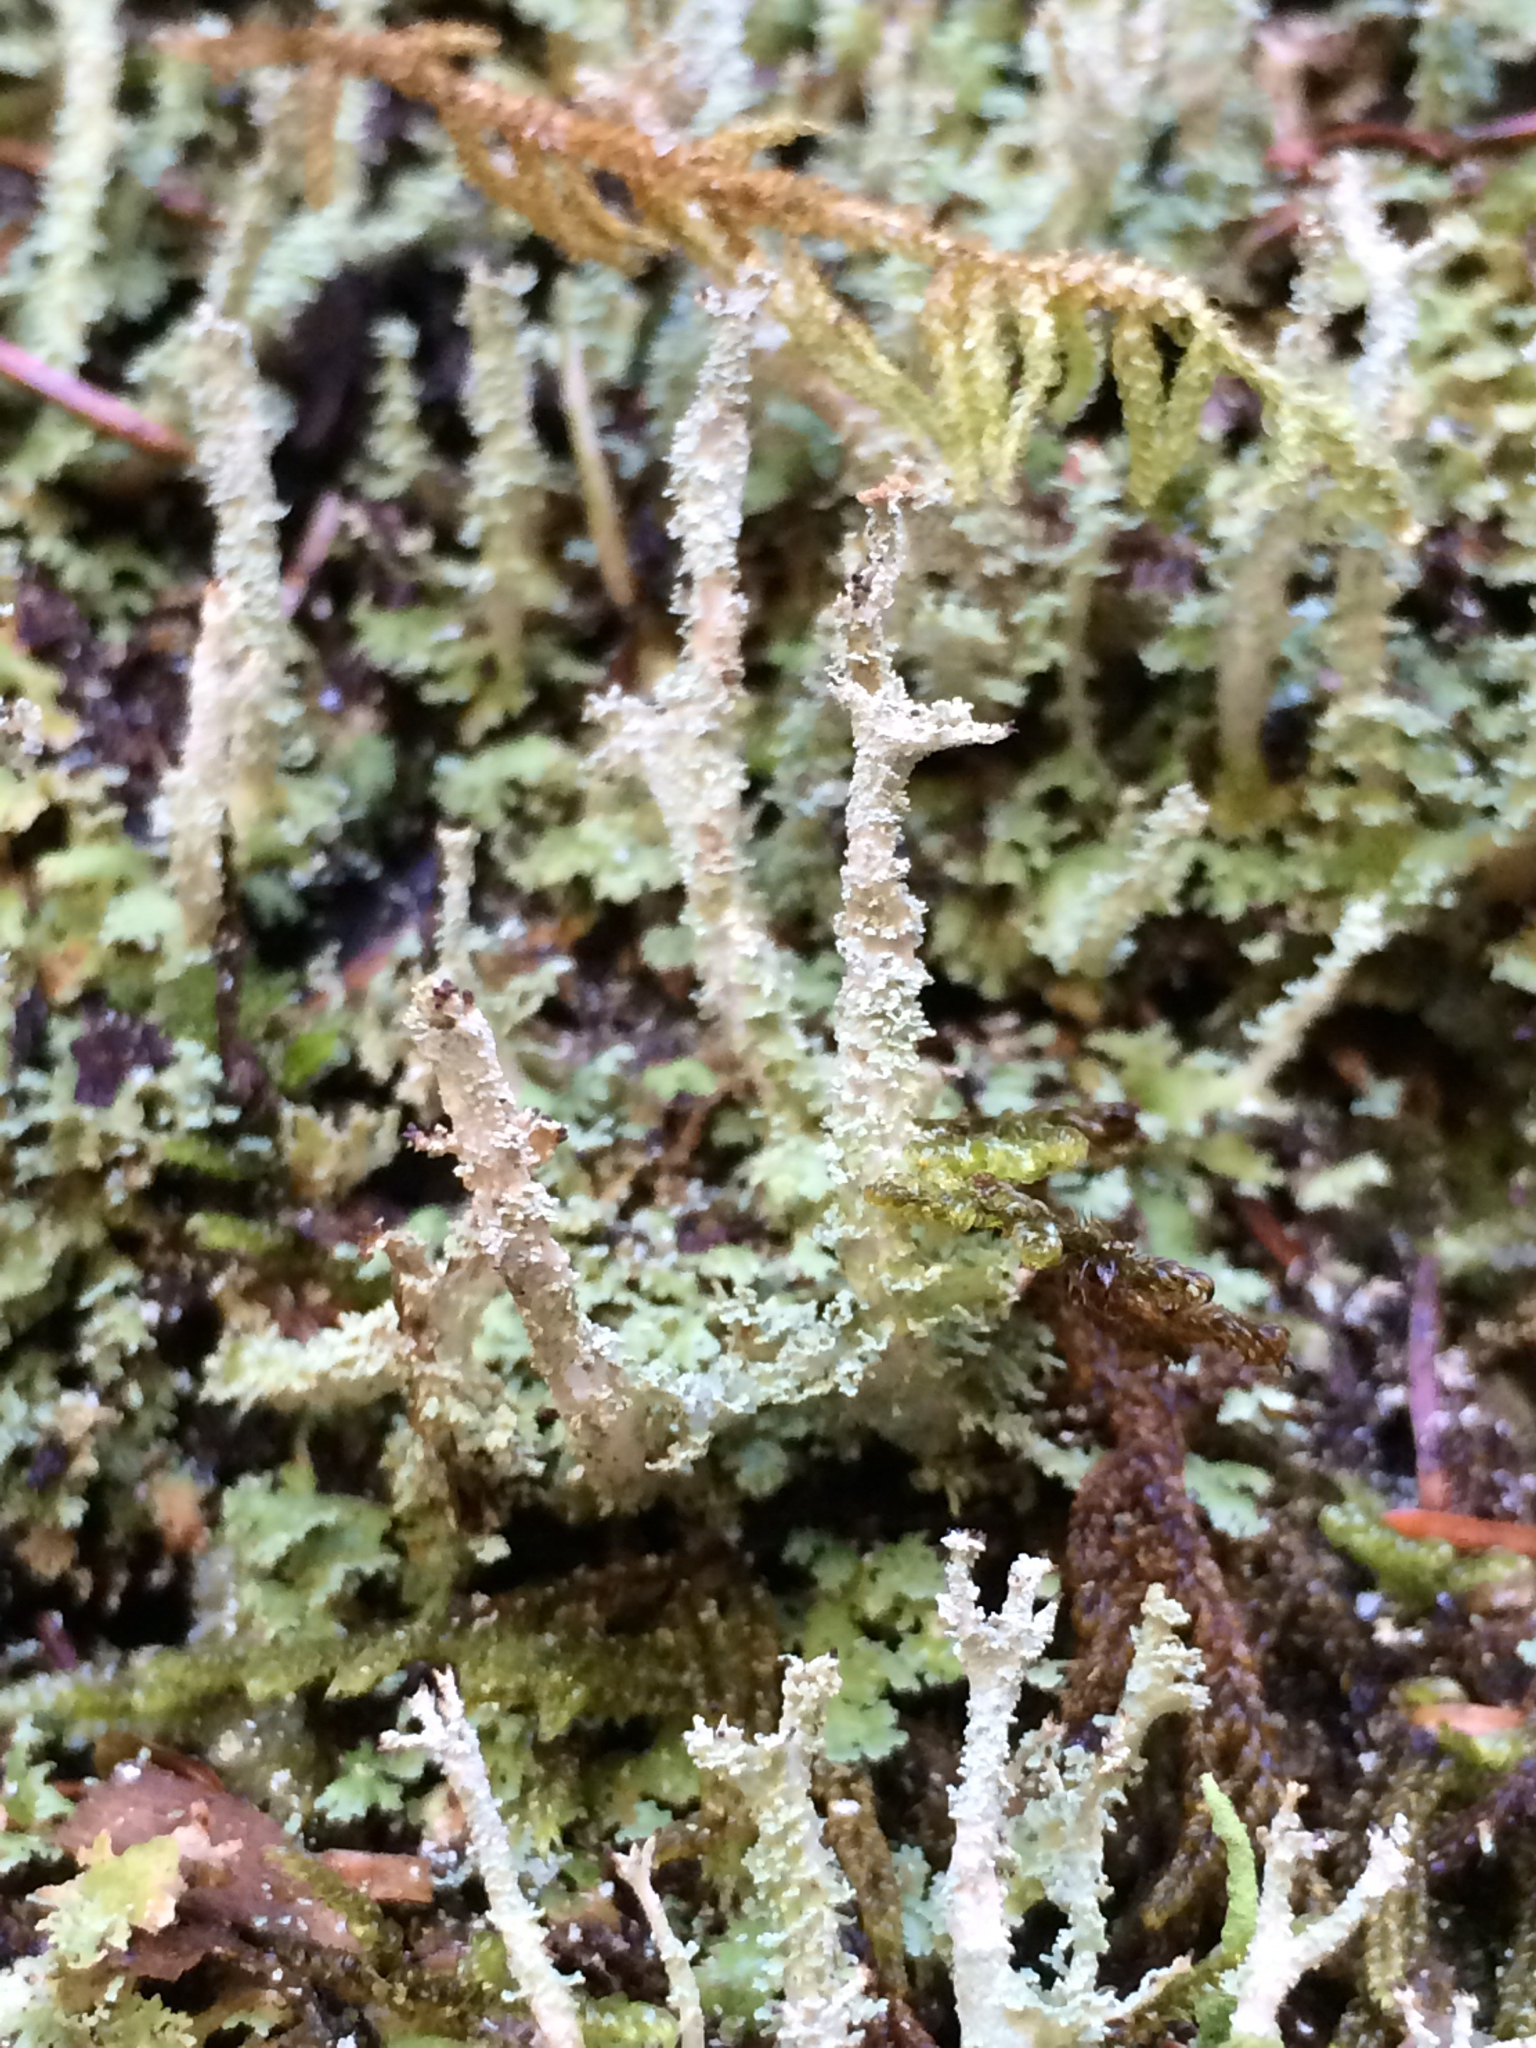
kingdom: Fungi
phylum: Ascomycota
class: Lecanoromycetes
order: Lecanorales
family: Cladoniaceae
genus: Cladonia
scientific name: Cladonia squamosa
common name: Dragon horn
